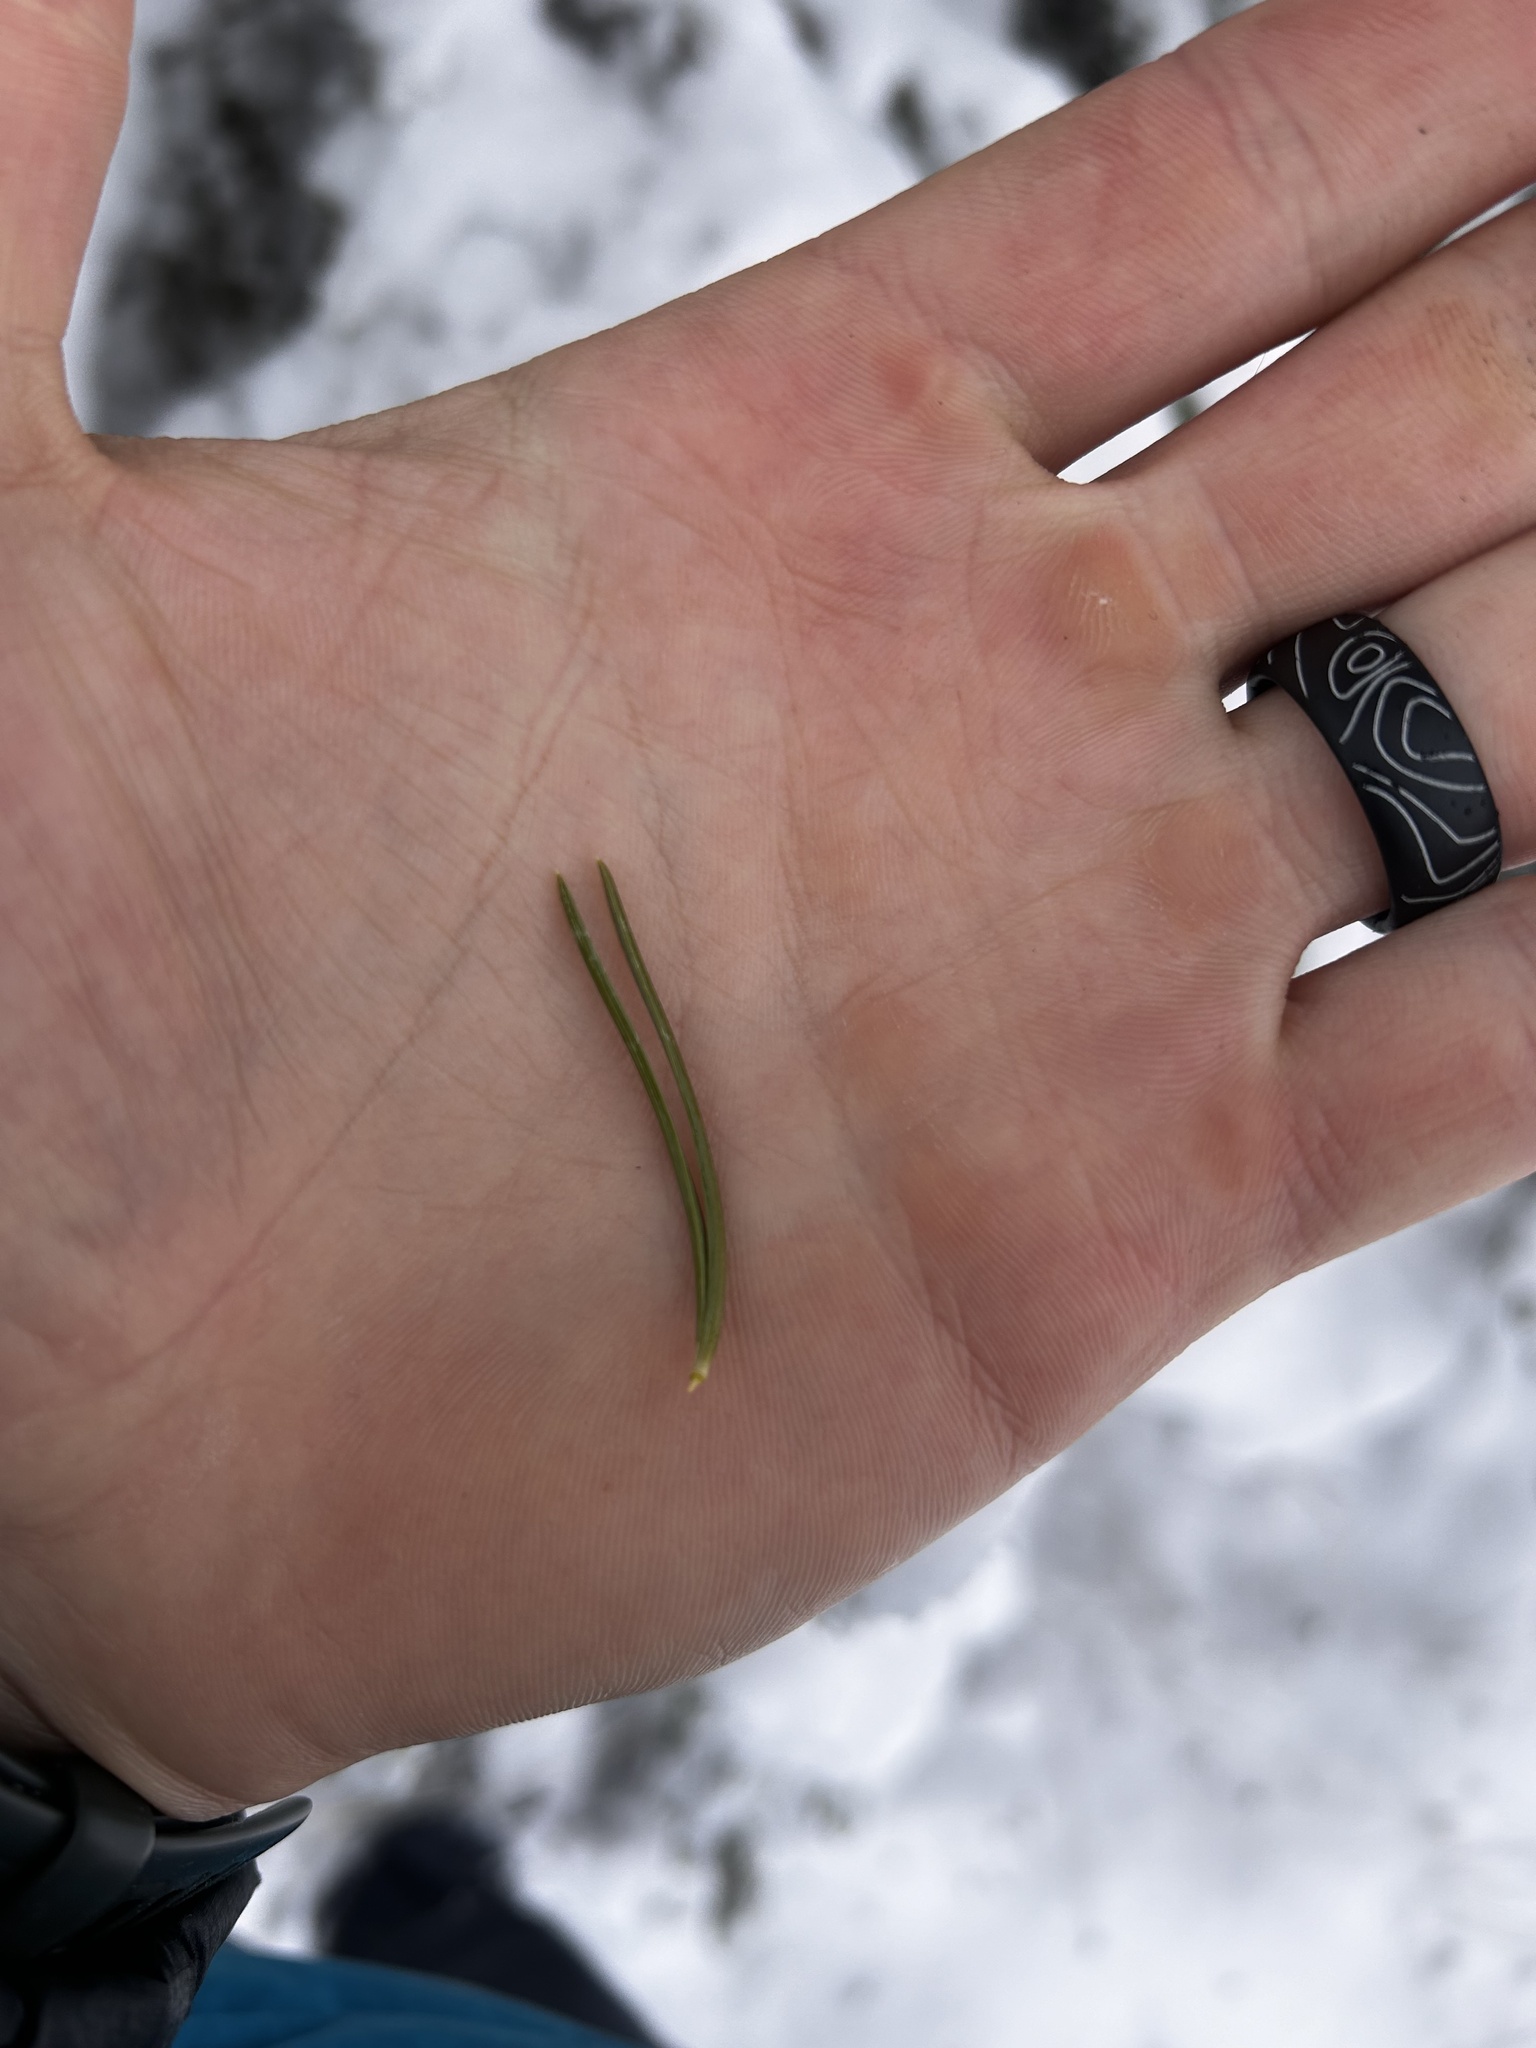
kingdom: Plantae
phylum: Tracheophyta
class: Pinopsida
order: Pinales
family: Pinaceae
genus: Pinus
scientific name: Pinus edulis
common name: Colorado pinyon
